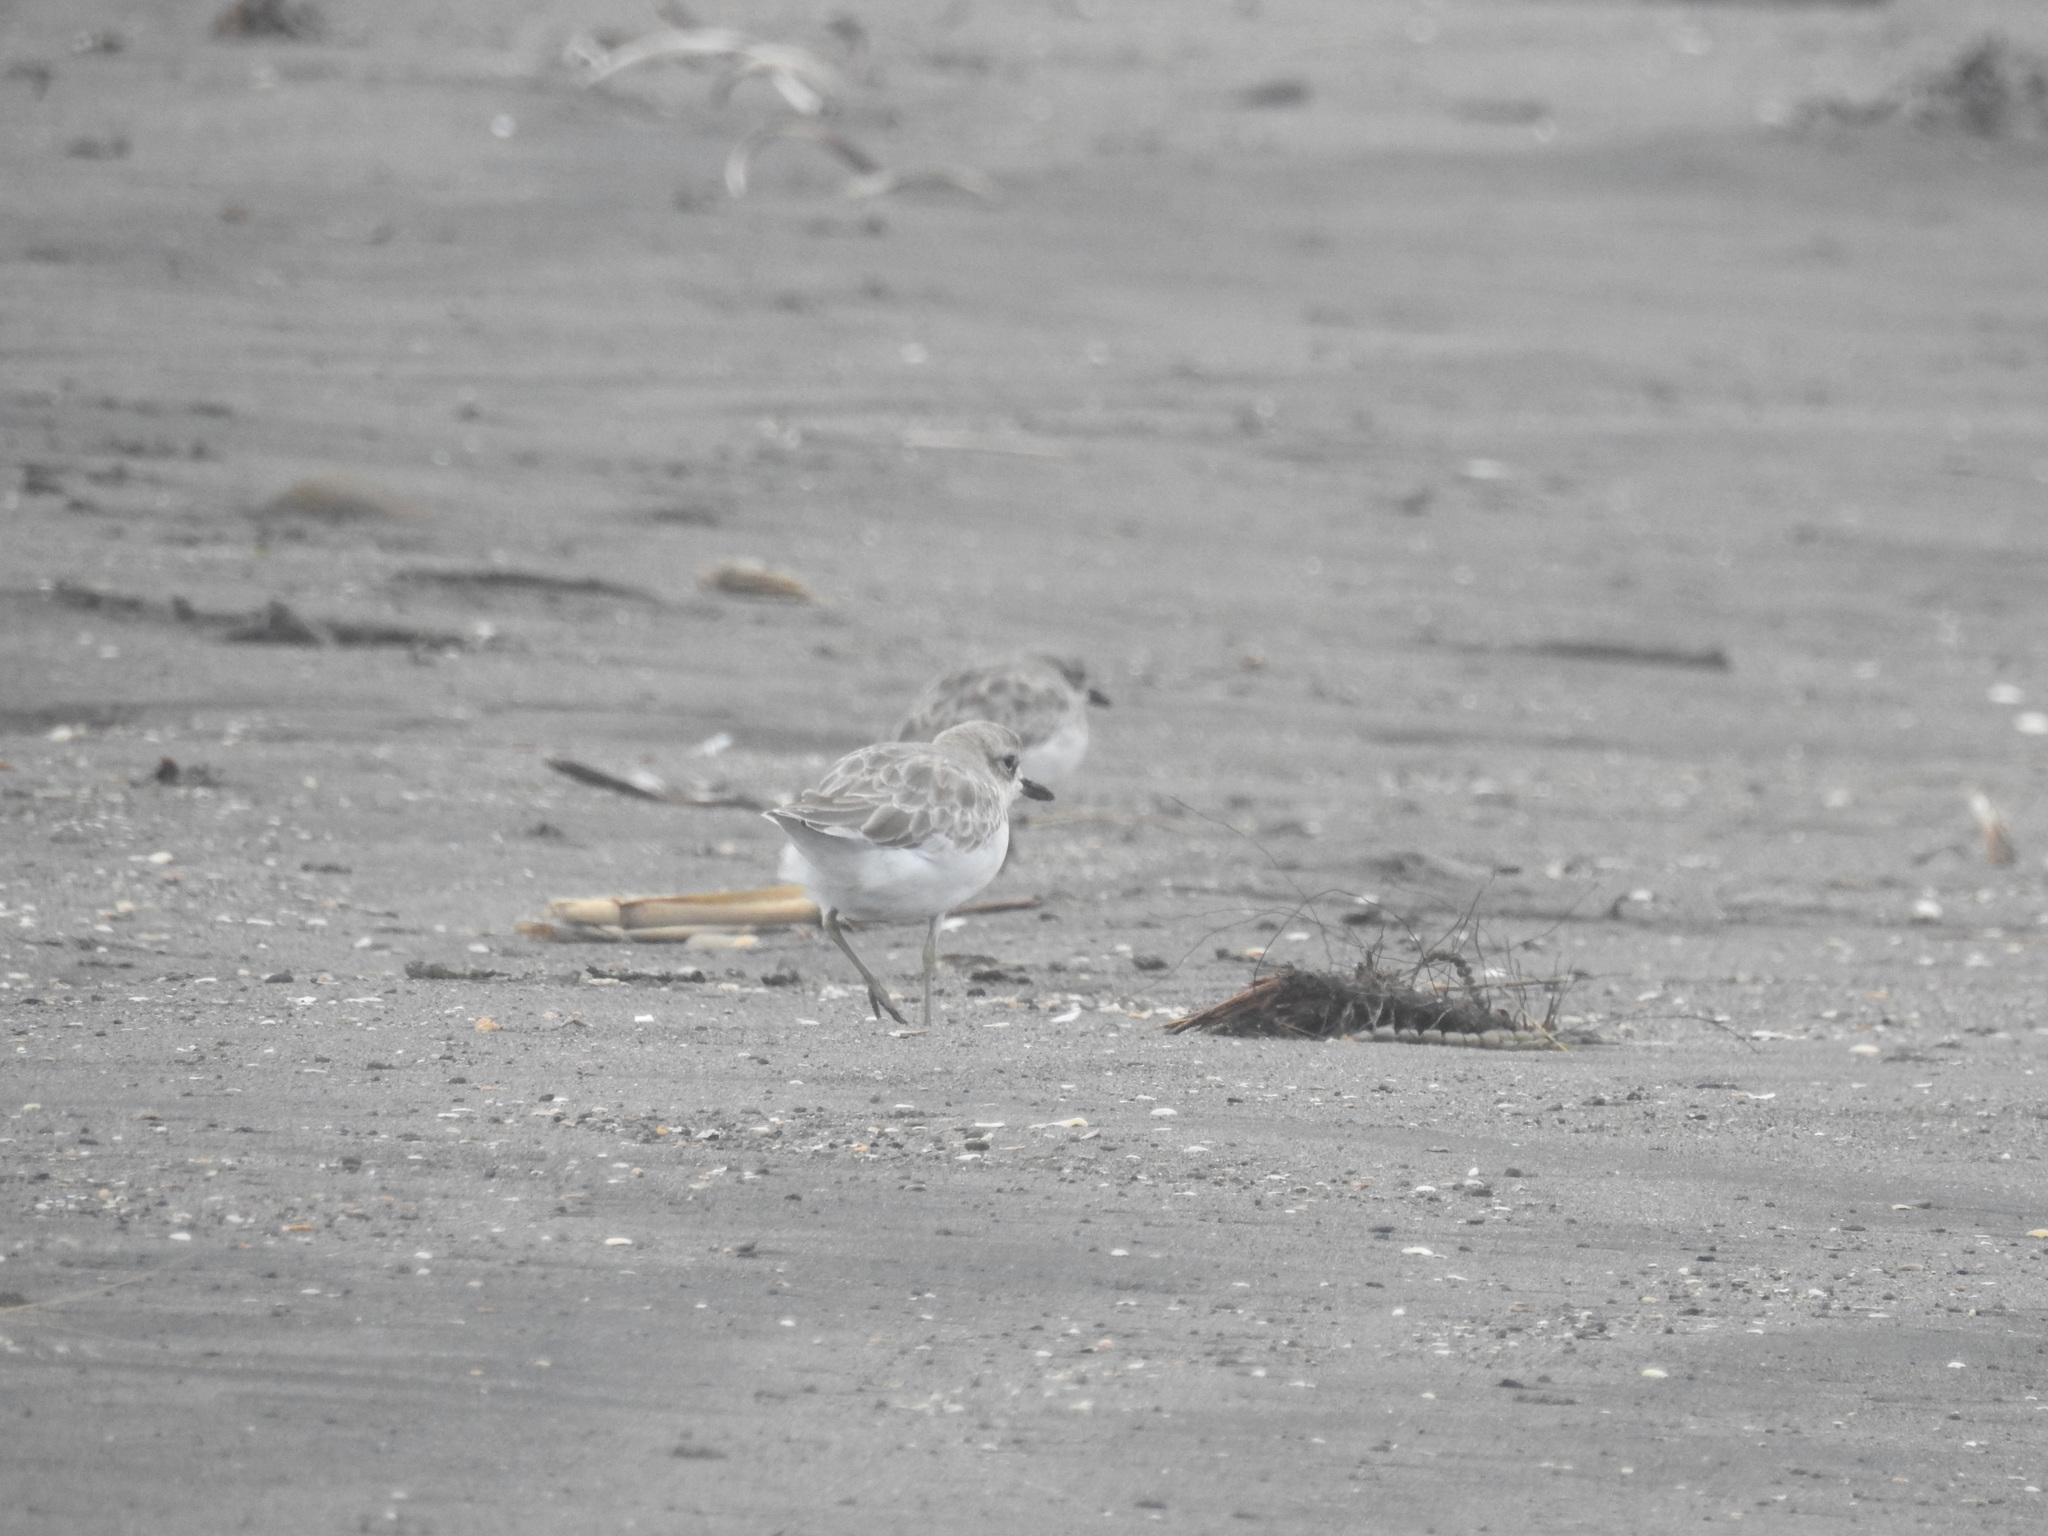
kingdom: Animalia
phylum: Chordata
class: Aves
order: Charadriiformes
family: Charadriidae
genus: Anarhynchus
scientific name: Anarhynchus
